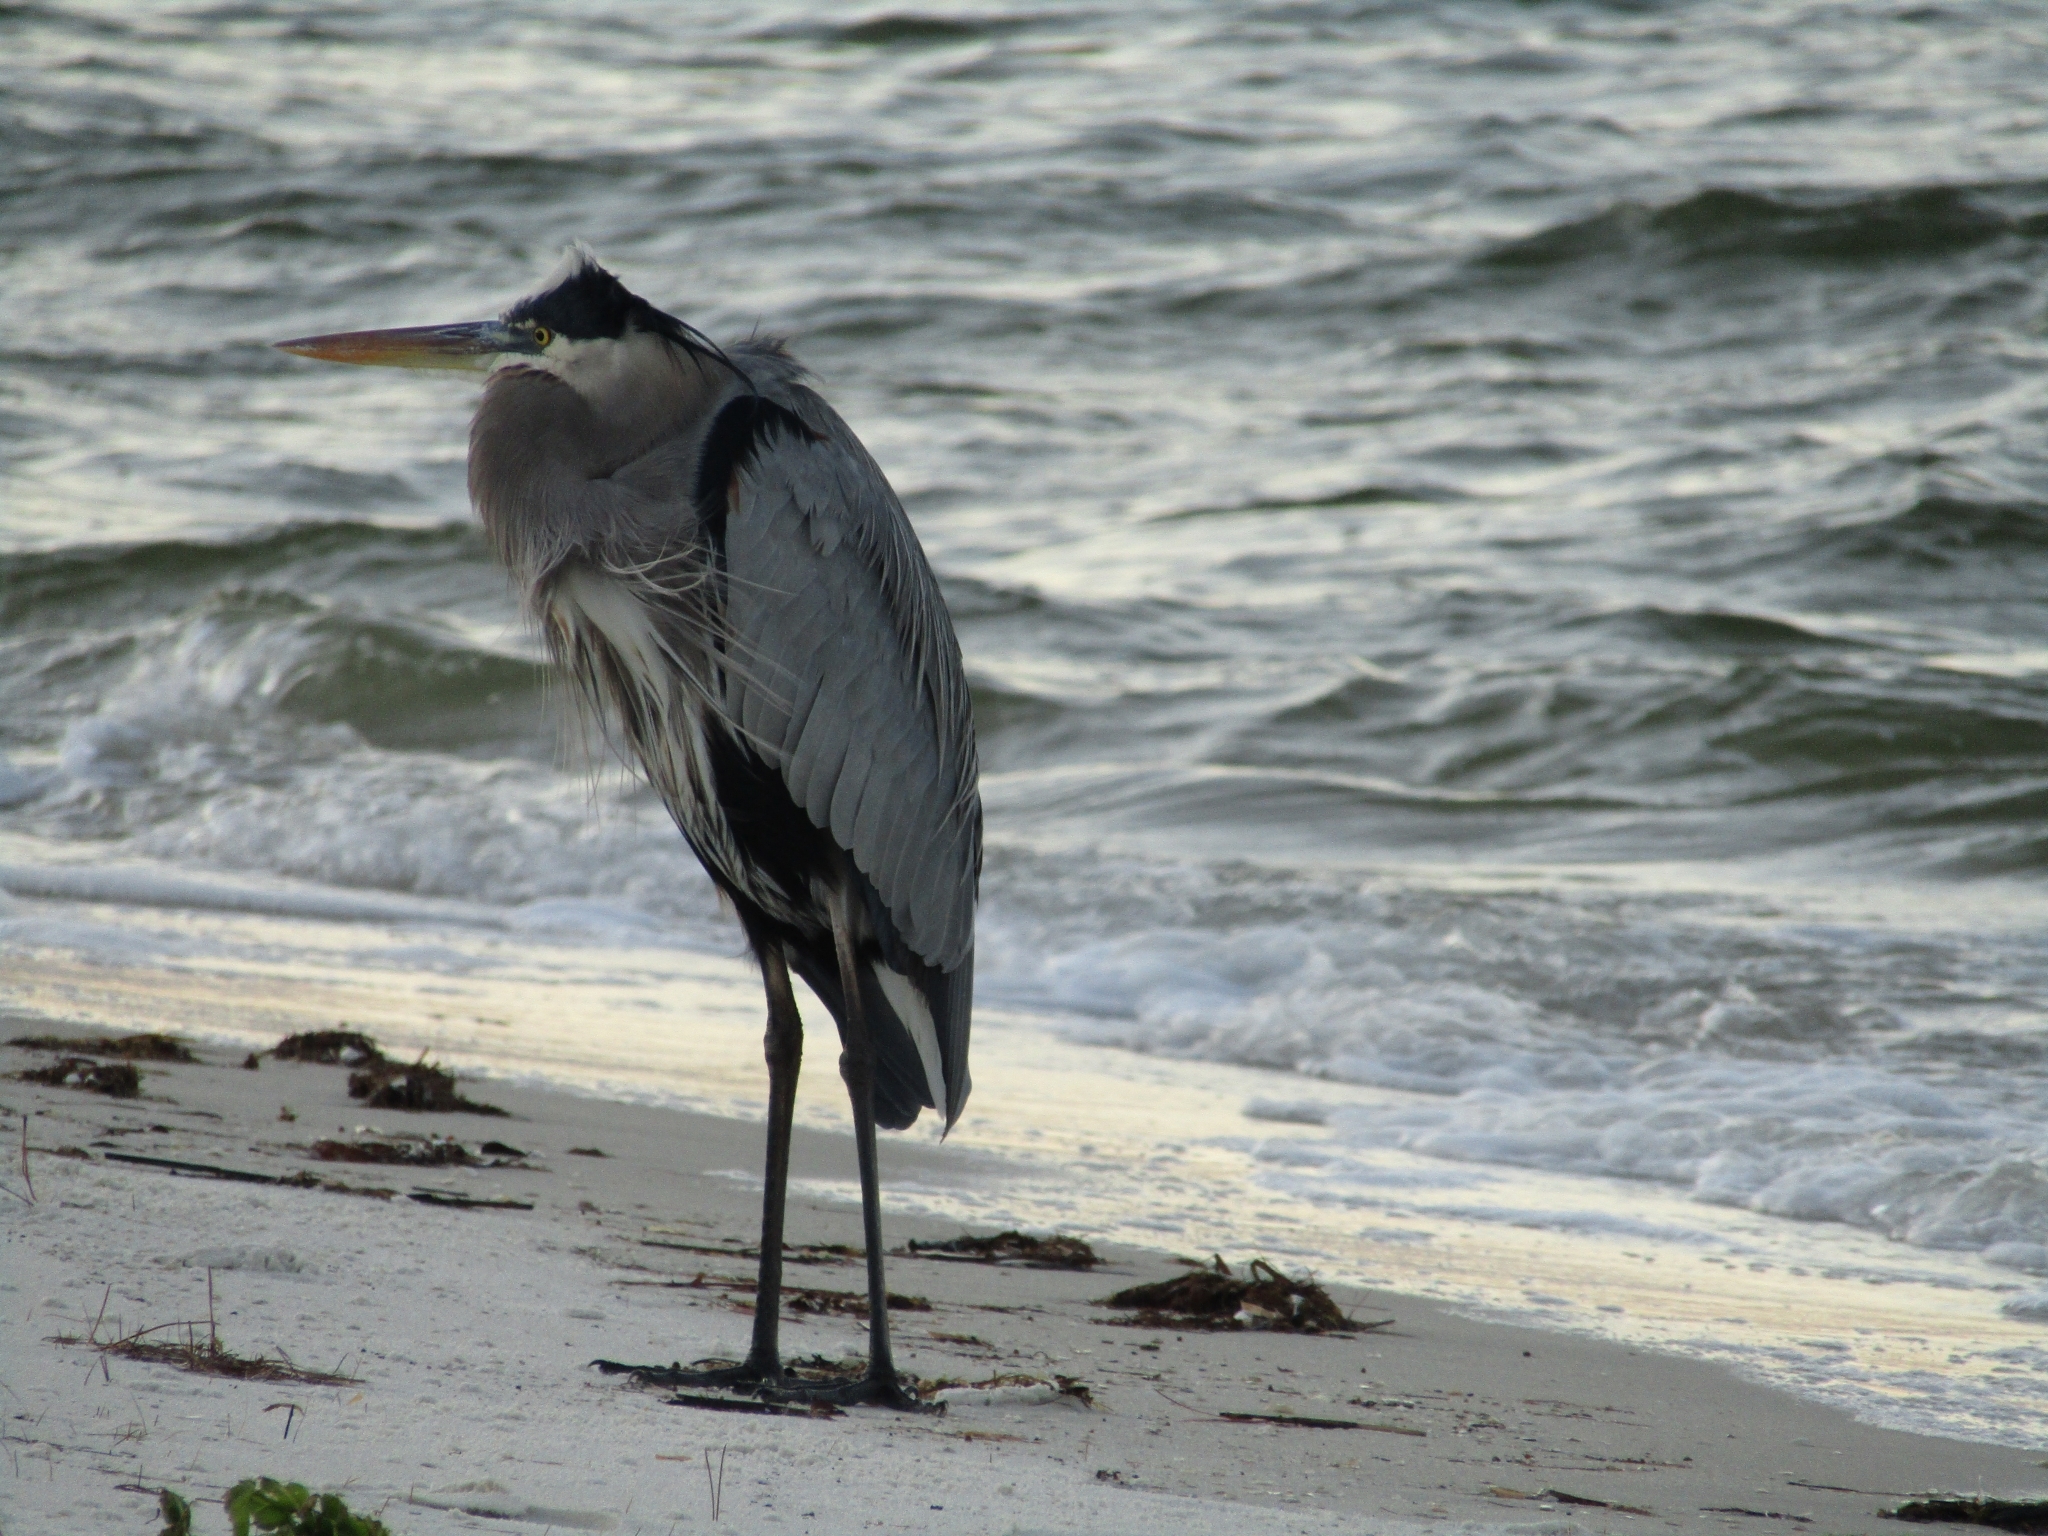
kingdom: Animalia
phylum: Chordata
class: Aves
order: Pelecaniformes
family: Ardeidae
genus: Ardea
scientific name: Ardea herodias
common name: Great blue heron
